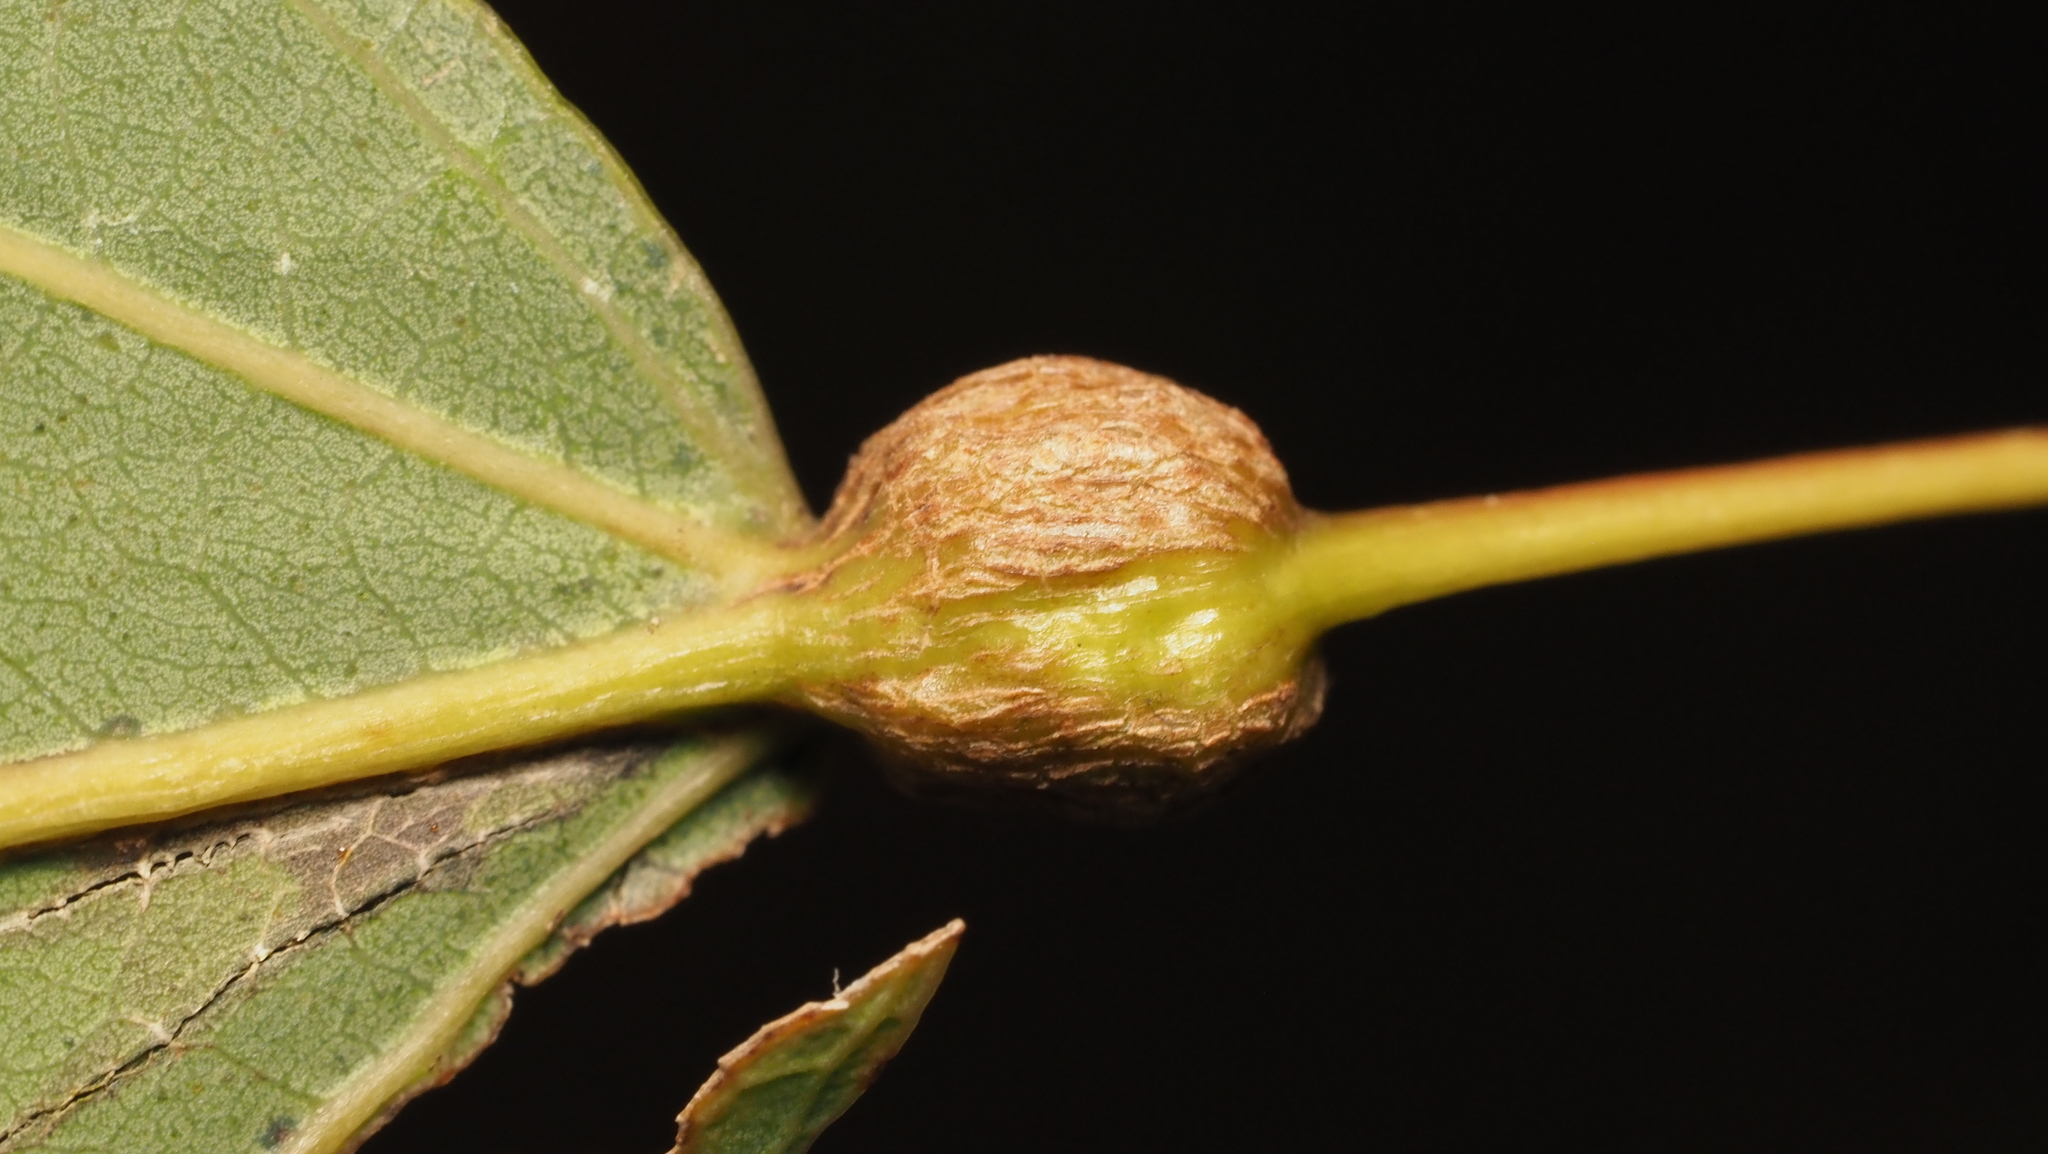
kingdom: Animalia
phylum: Arthropoda
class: Insecta
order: Lepidoptera
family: Nepticulidae
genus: Ectoedemia
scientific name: Ectoedemia populella
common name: Aspen petiole gall moth
